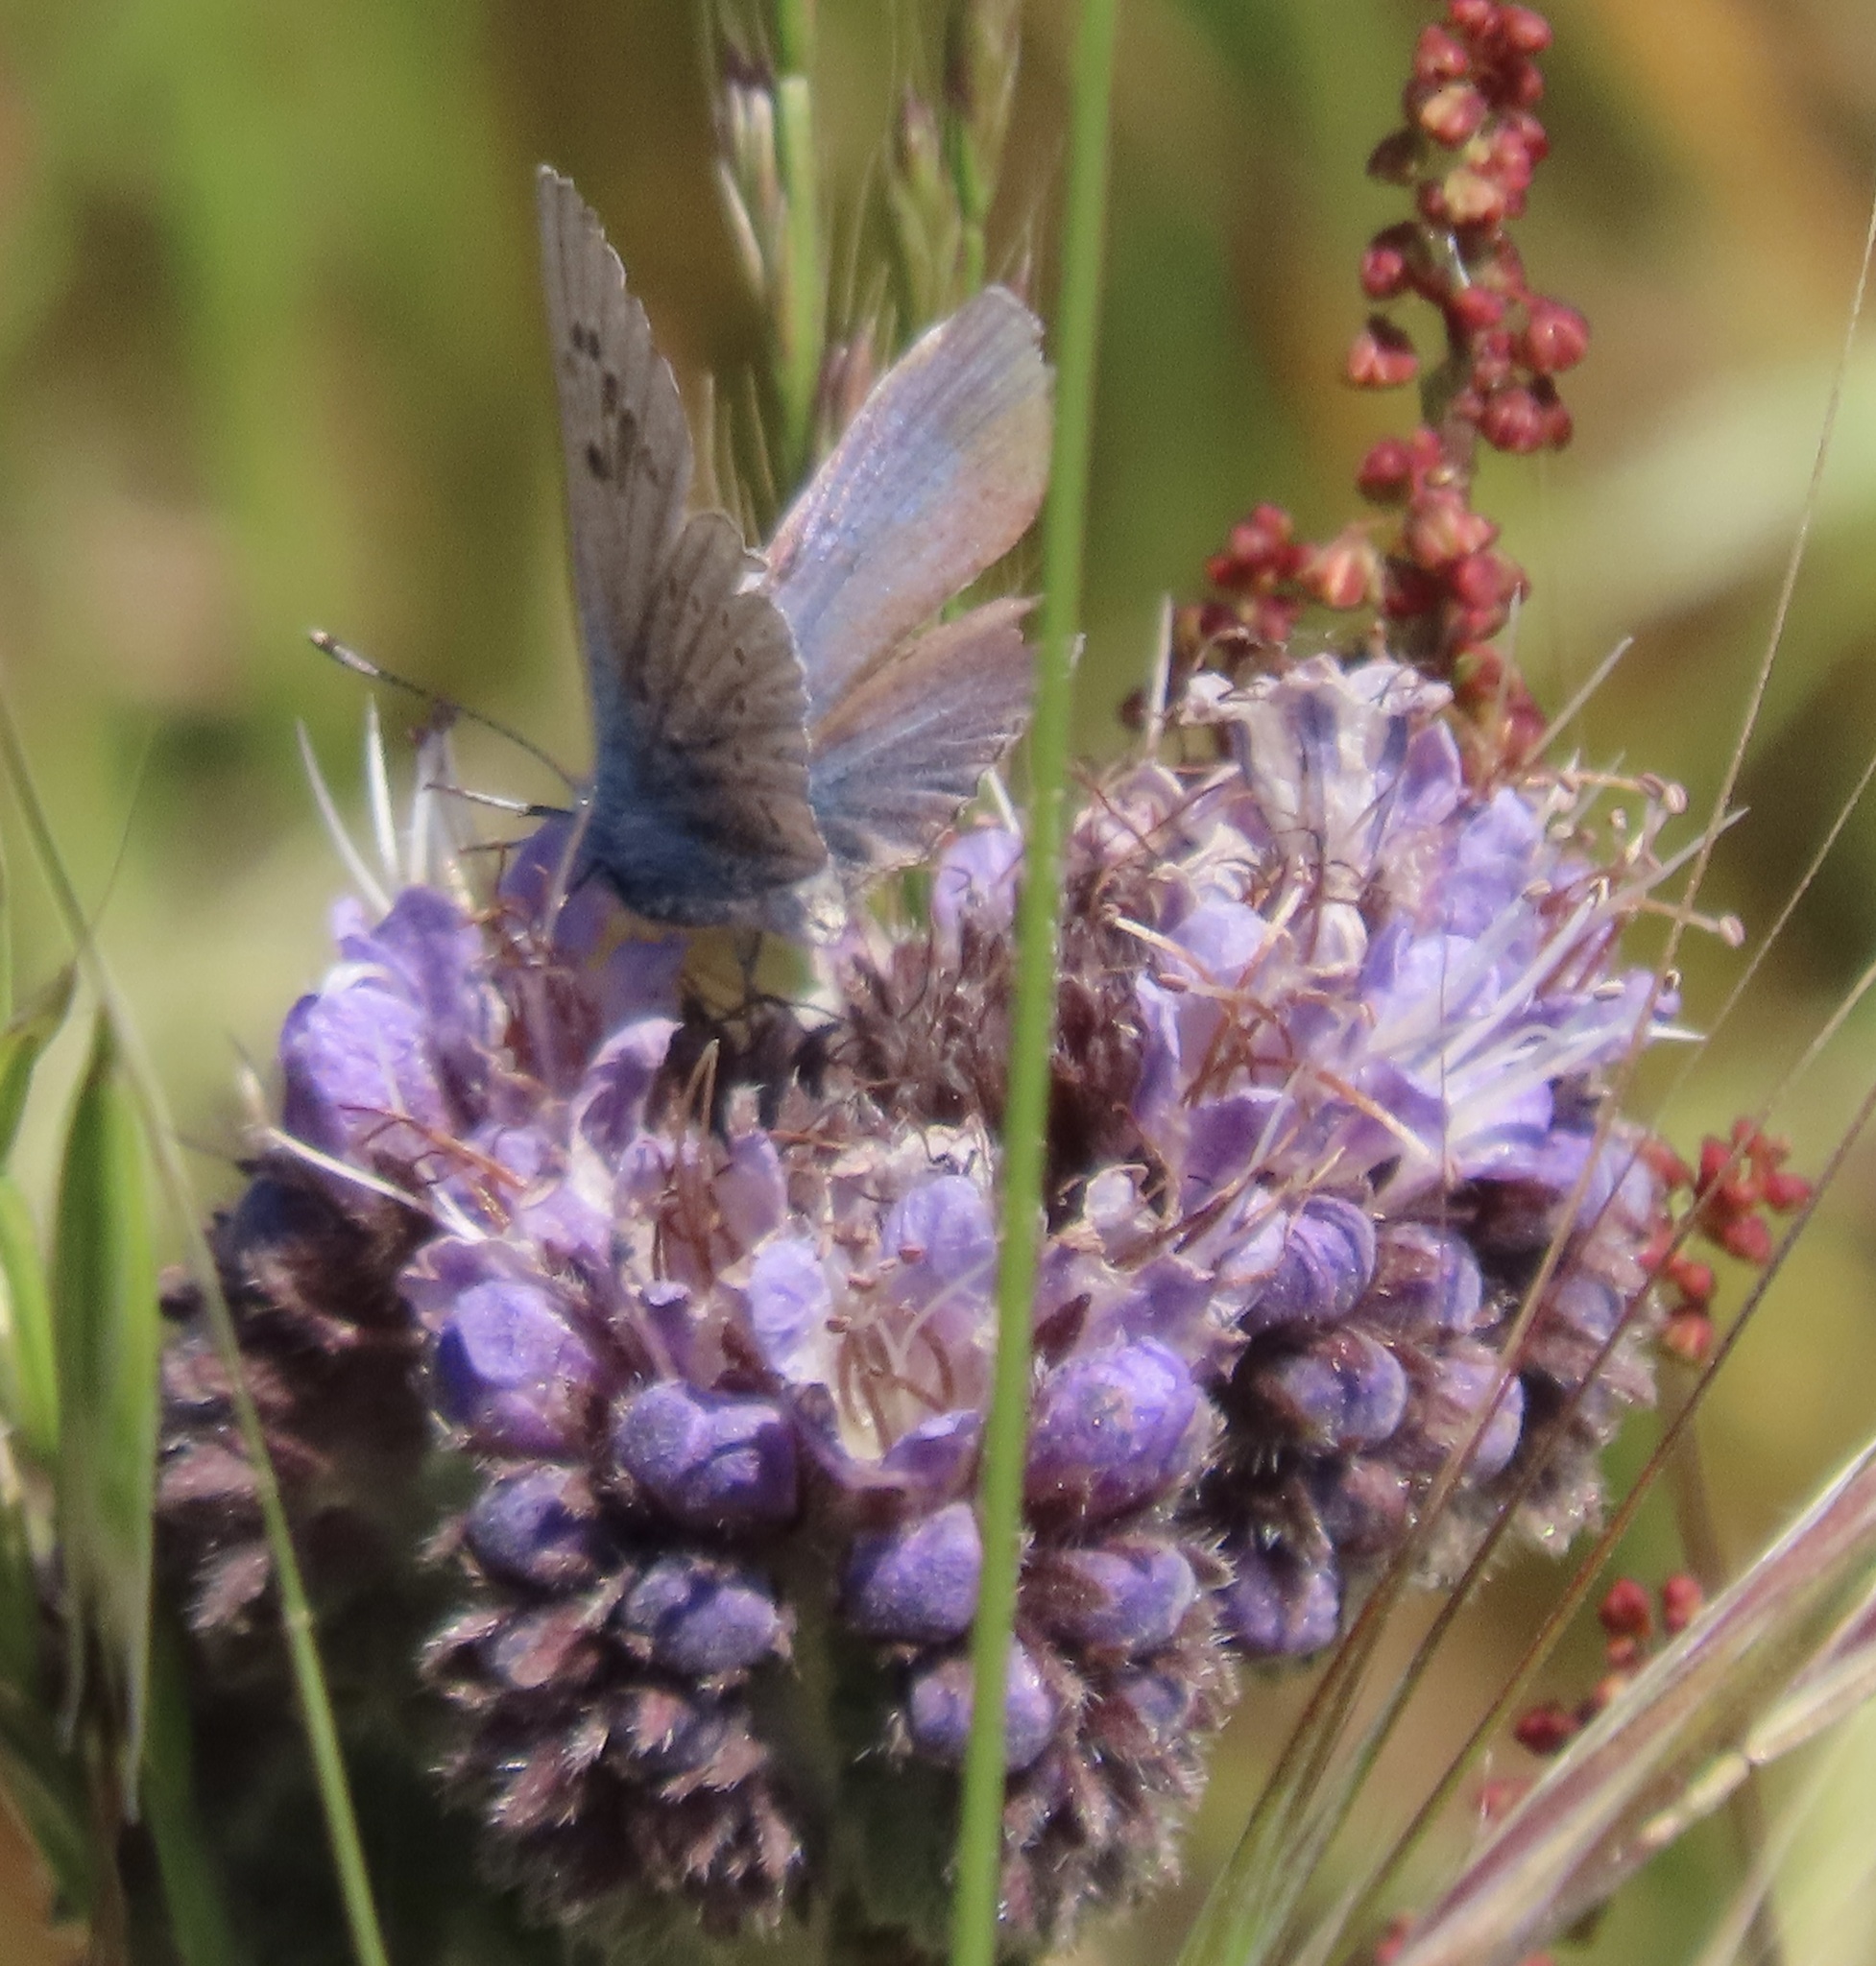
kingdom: Animalia
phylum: Arthropoda
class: Insecta
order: Lepidoptera
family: Lycaenidae
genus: Icaricia
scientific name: Icaricia icarioides
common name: Boisduval's blue
